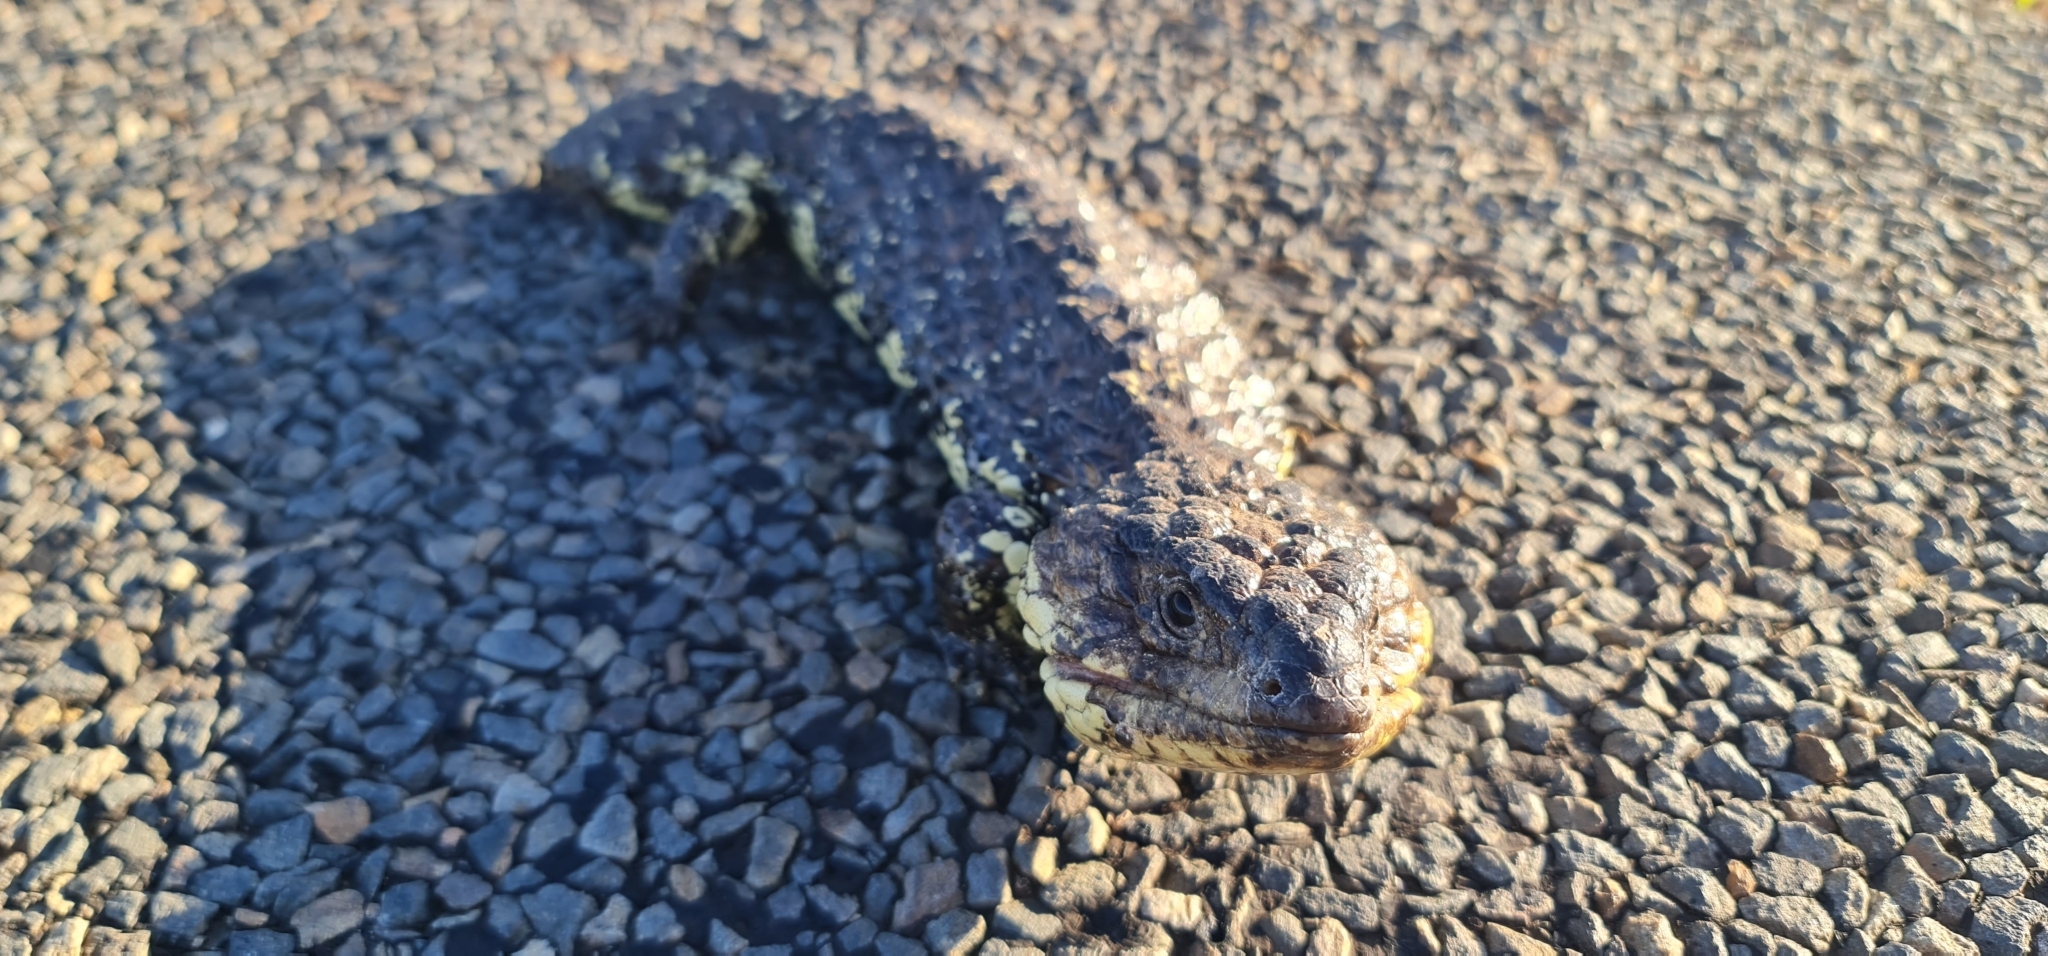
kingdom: Animalia
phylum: Chordata
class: Squamata
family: Scincidae
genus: Tiliqua
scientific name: Tiliqua rugosa
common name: Pinecone lizard
